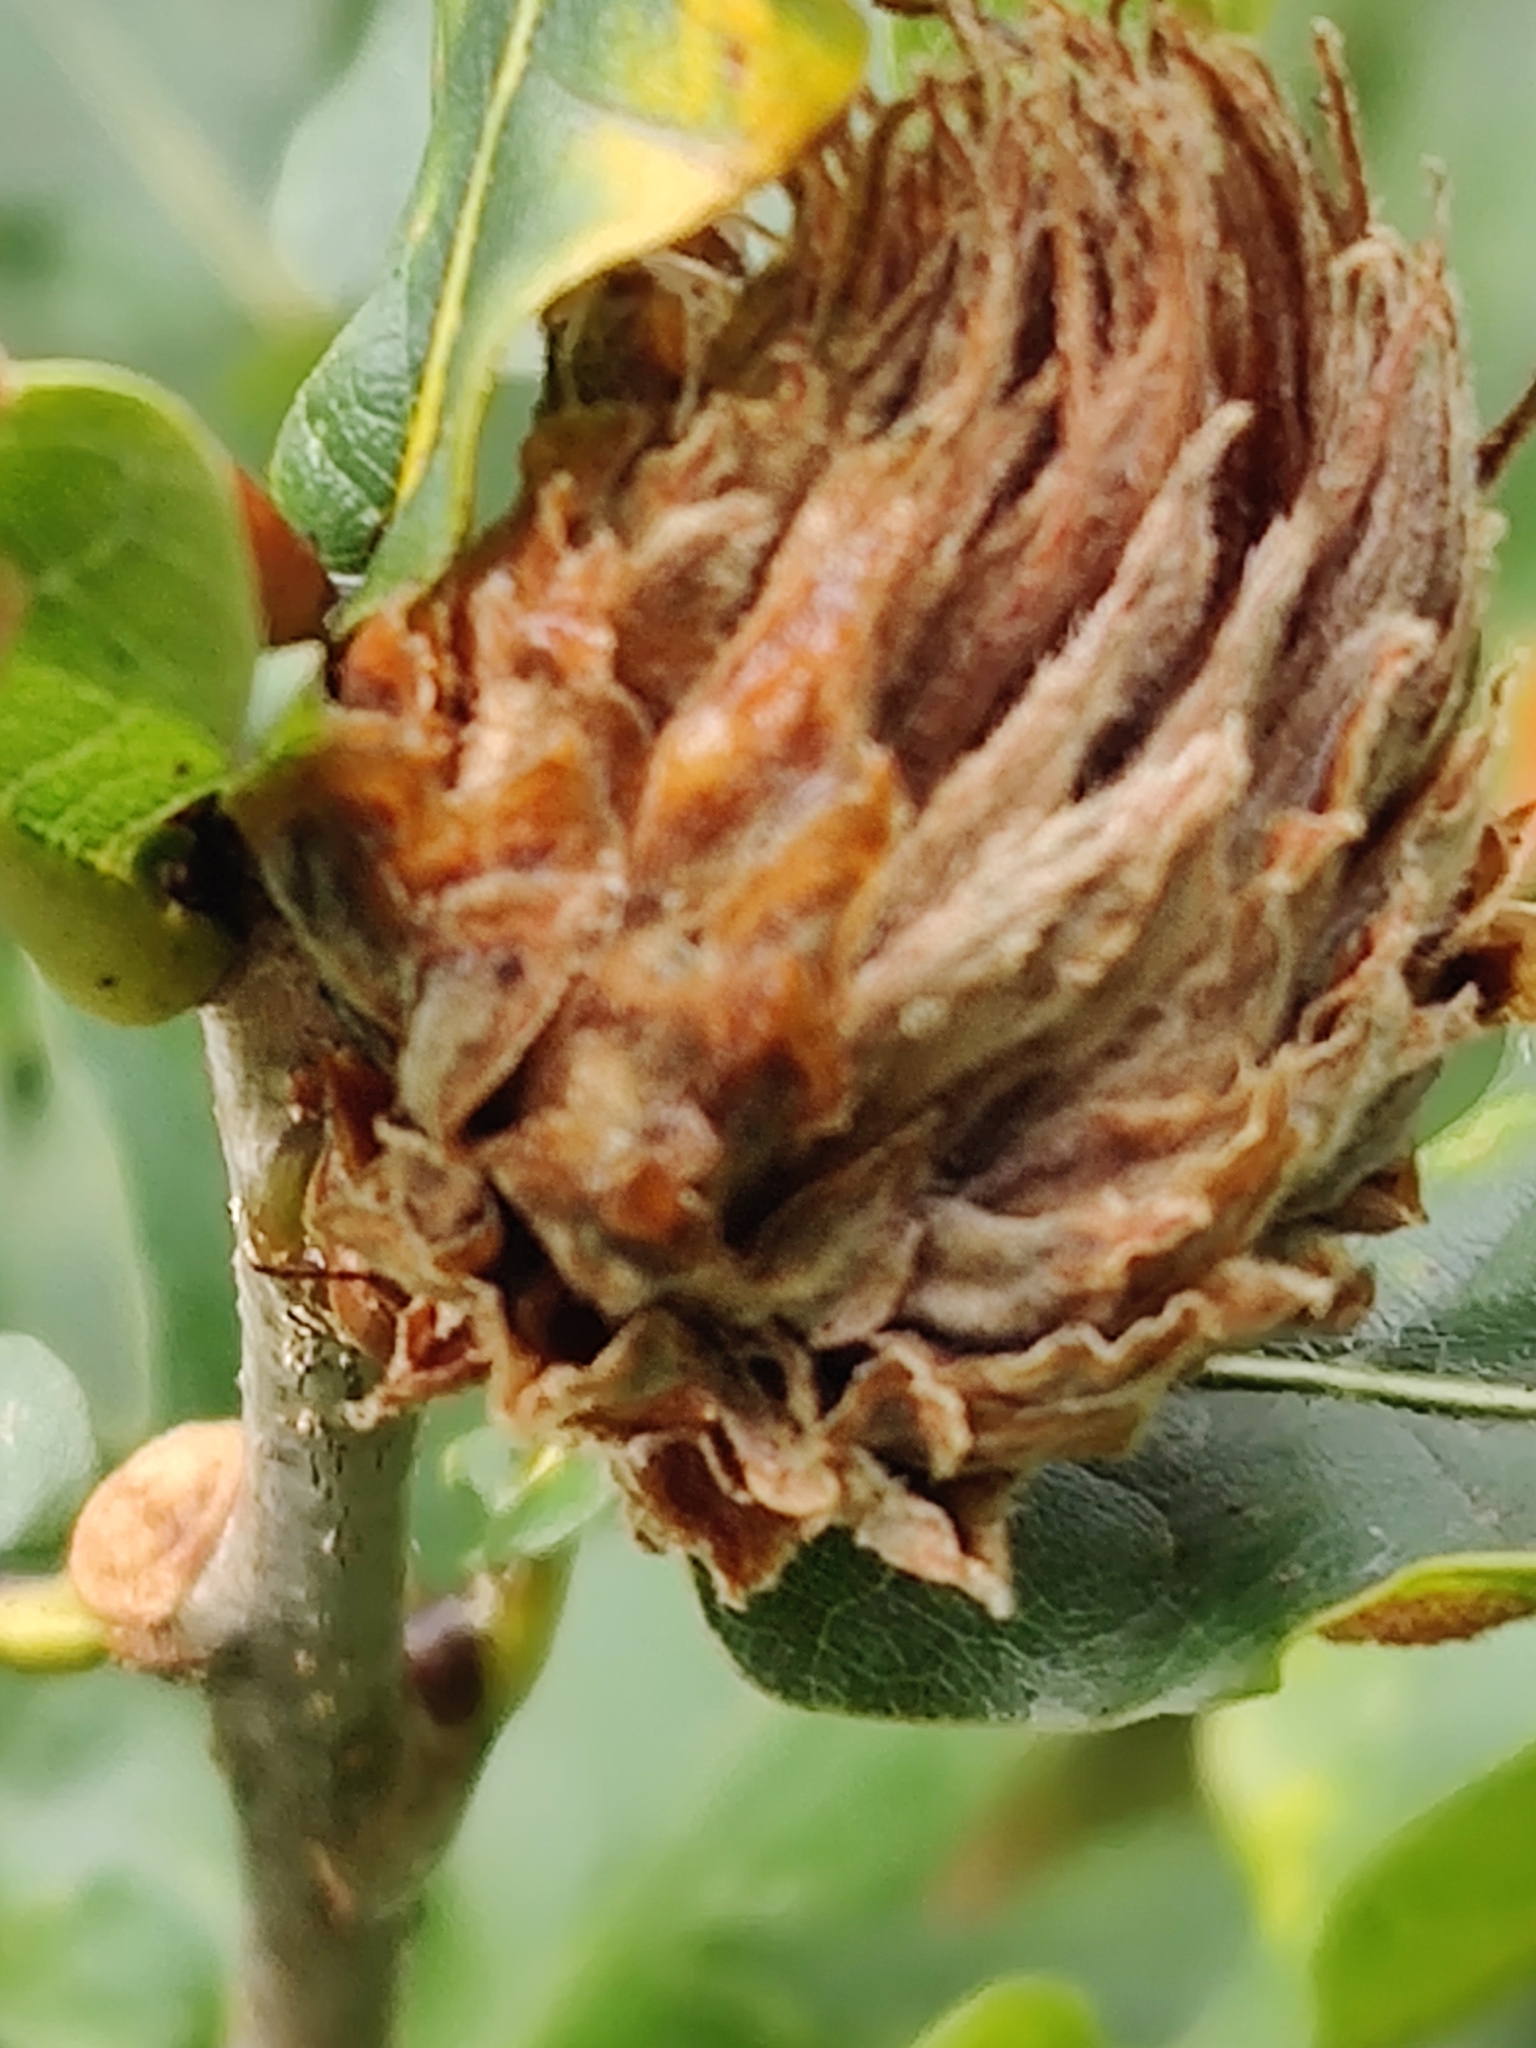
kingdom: Animalia
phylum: Arthropoda
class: Insecta
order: Hymenoptera
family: Cynipidae
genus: Andricus
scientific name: Andricus foecundatrix
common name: Artichoke gall
